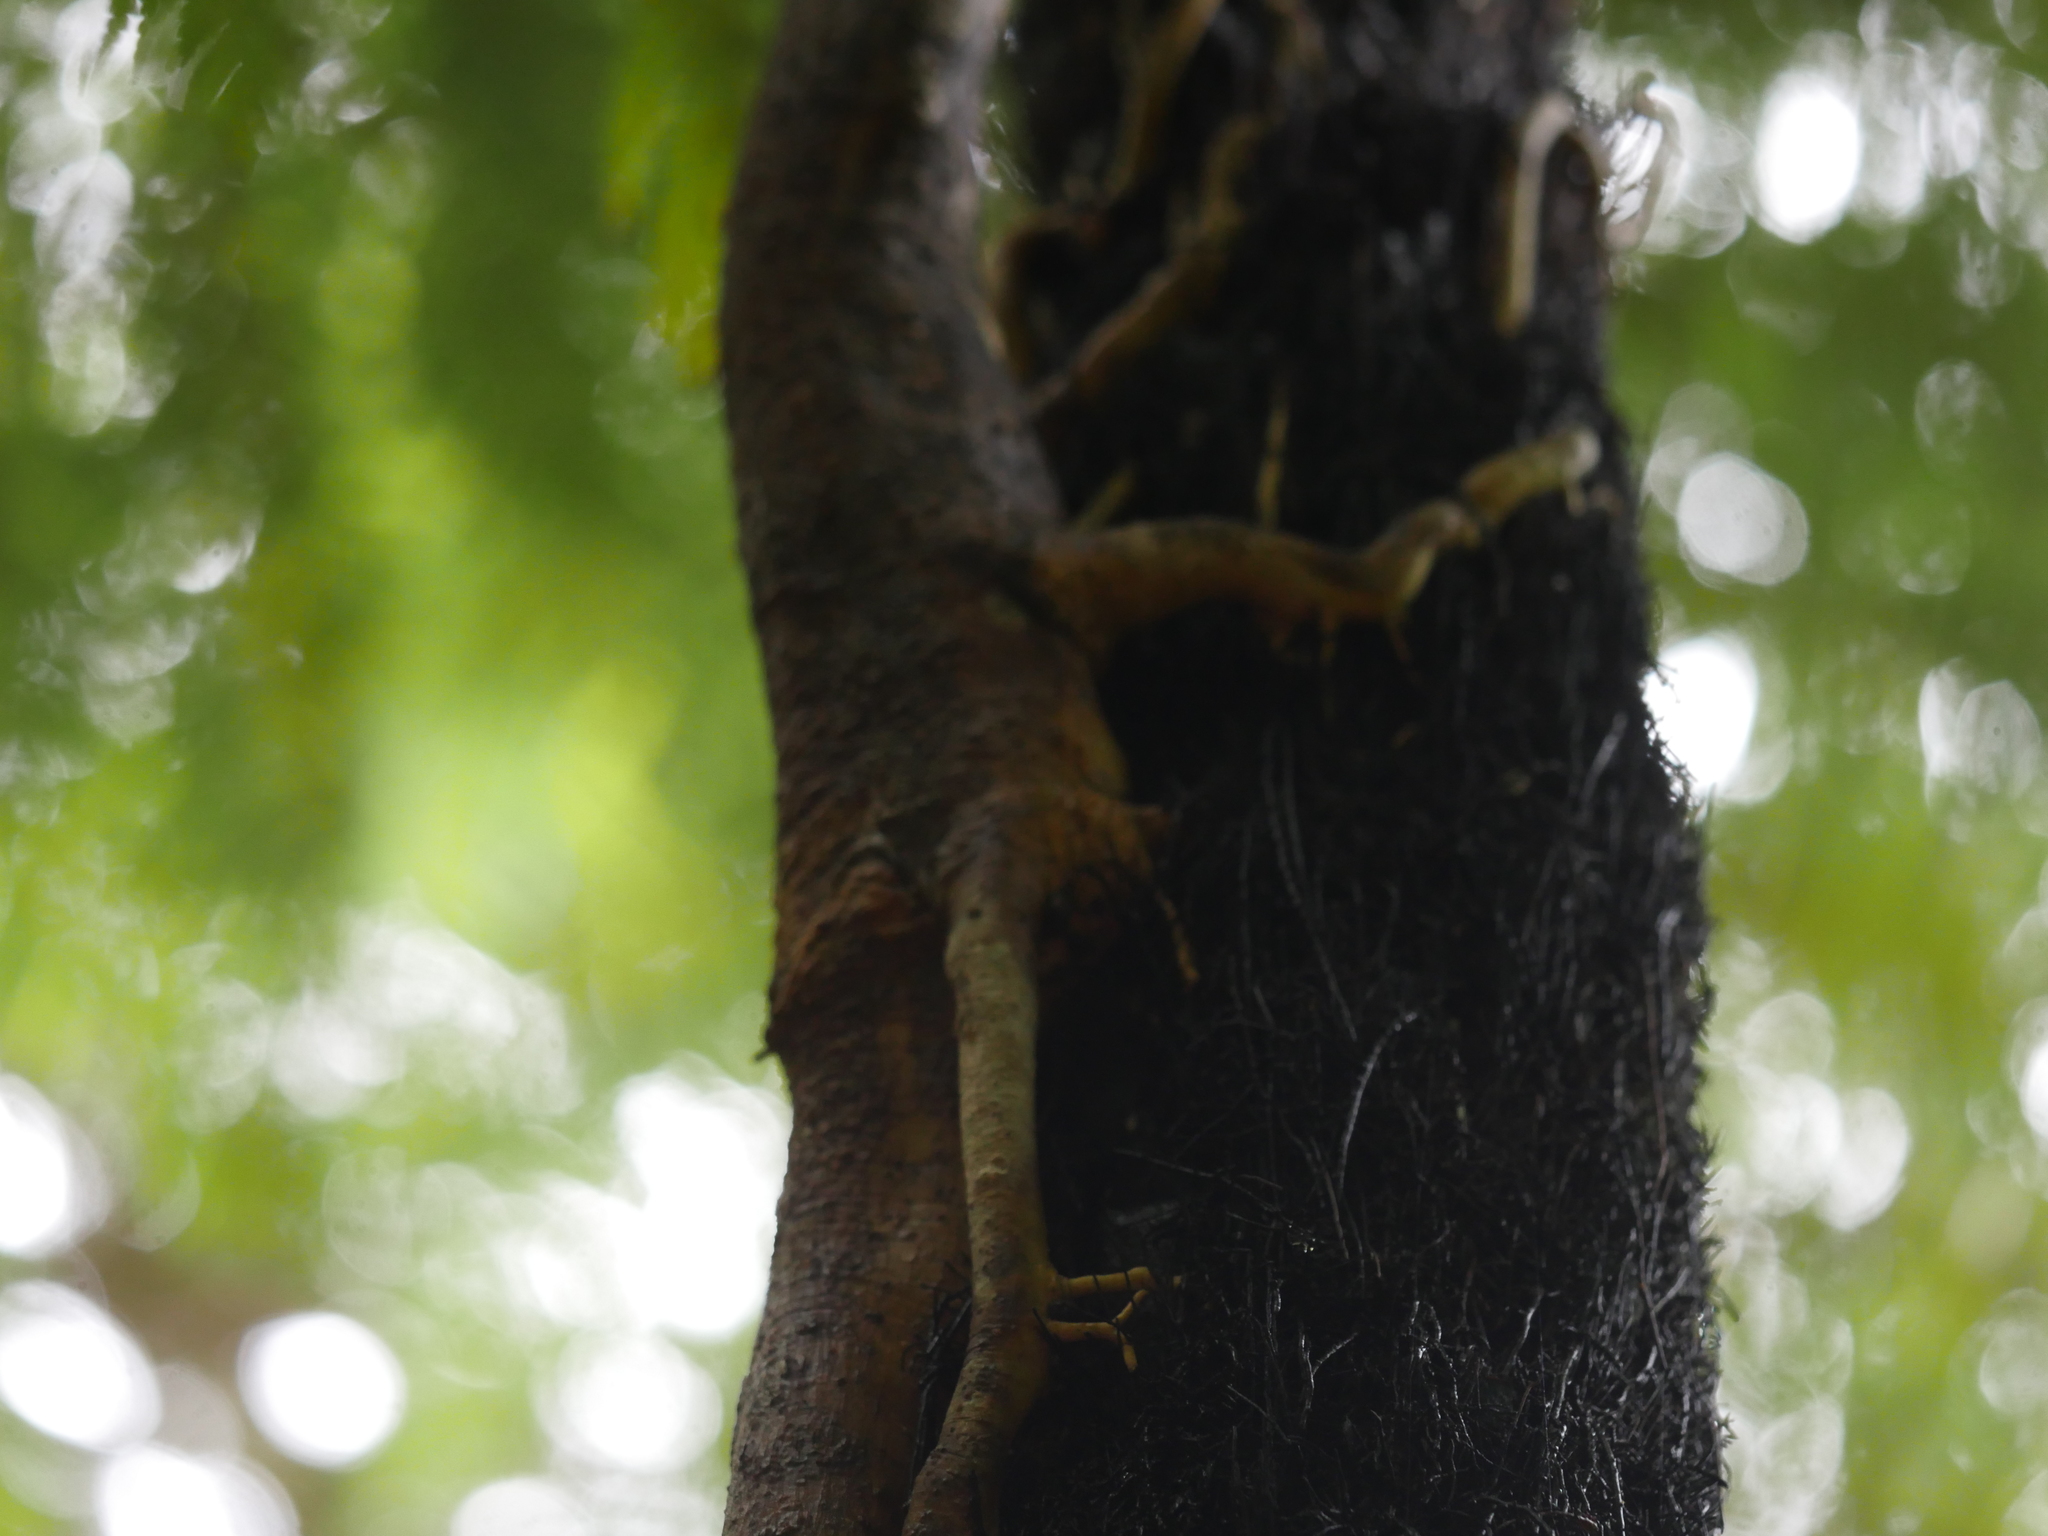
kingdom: Plantae
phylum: Tracheophyta
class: Magnoliopsida
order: Apiales
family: Araliaceae
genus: Raukaua
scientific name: Raukaua edgerleyi
